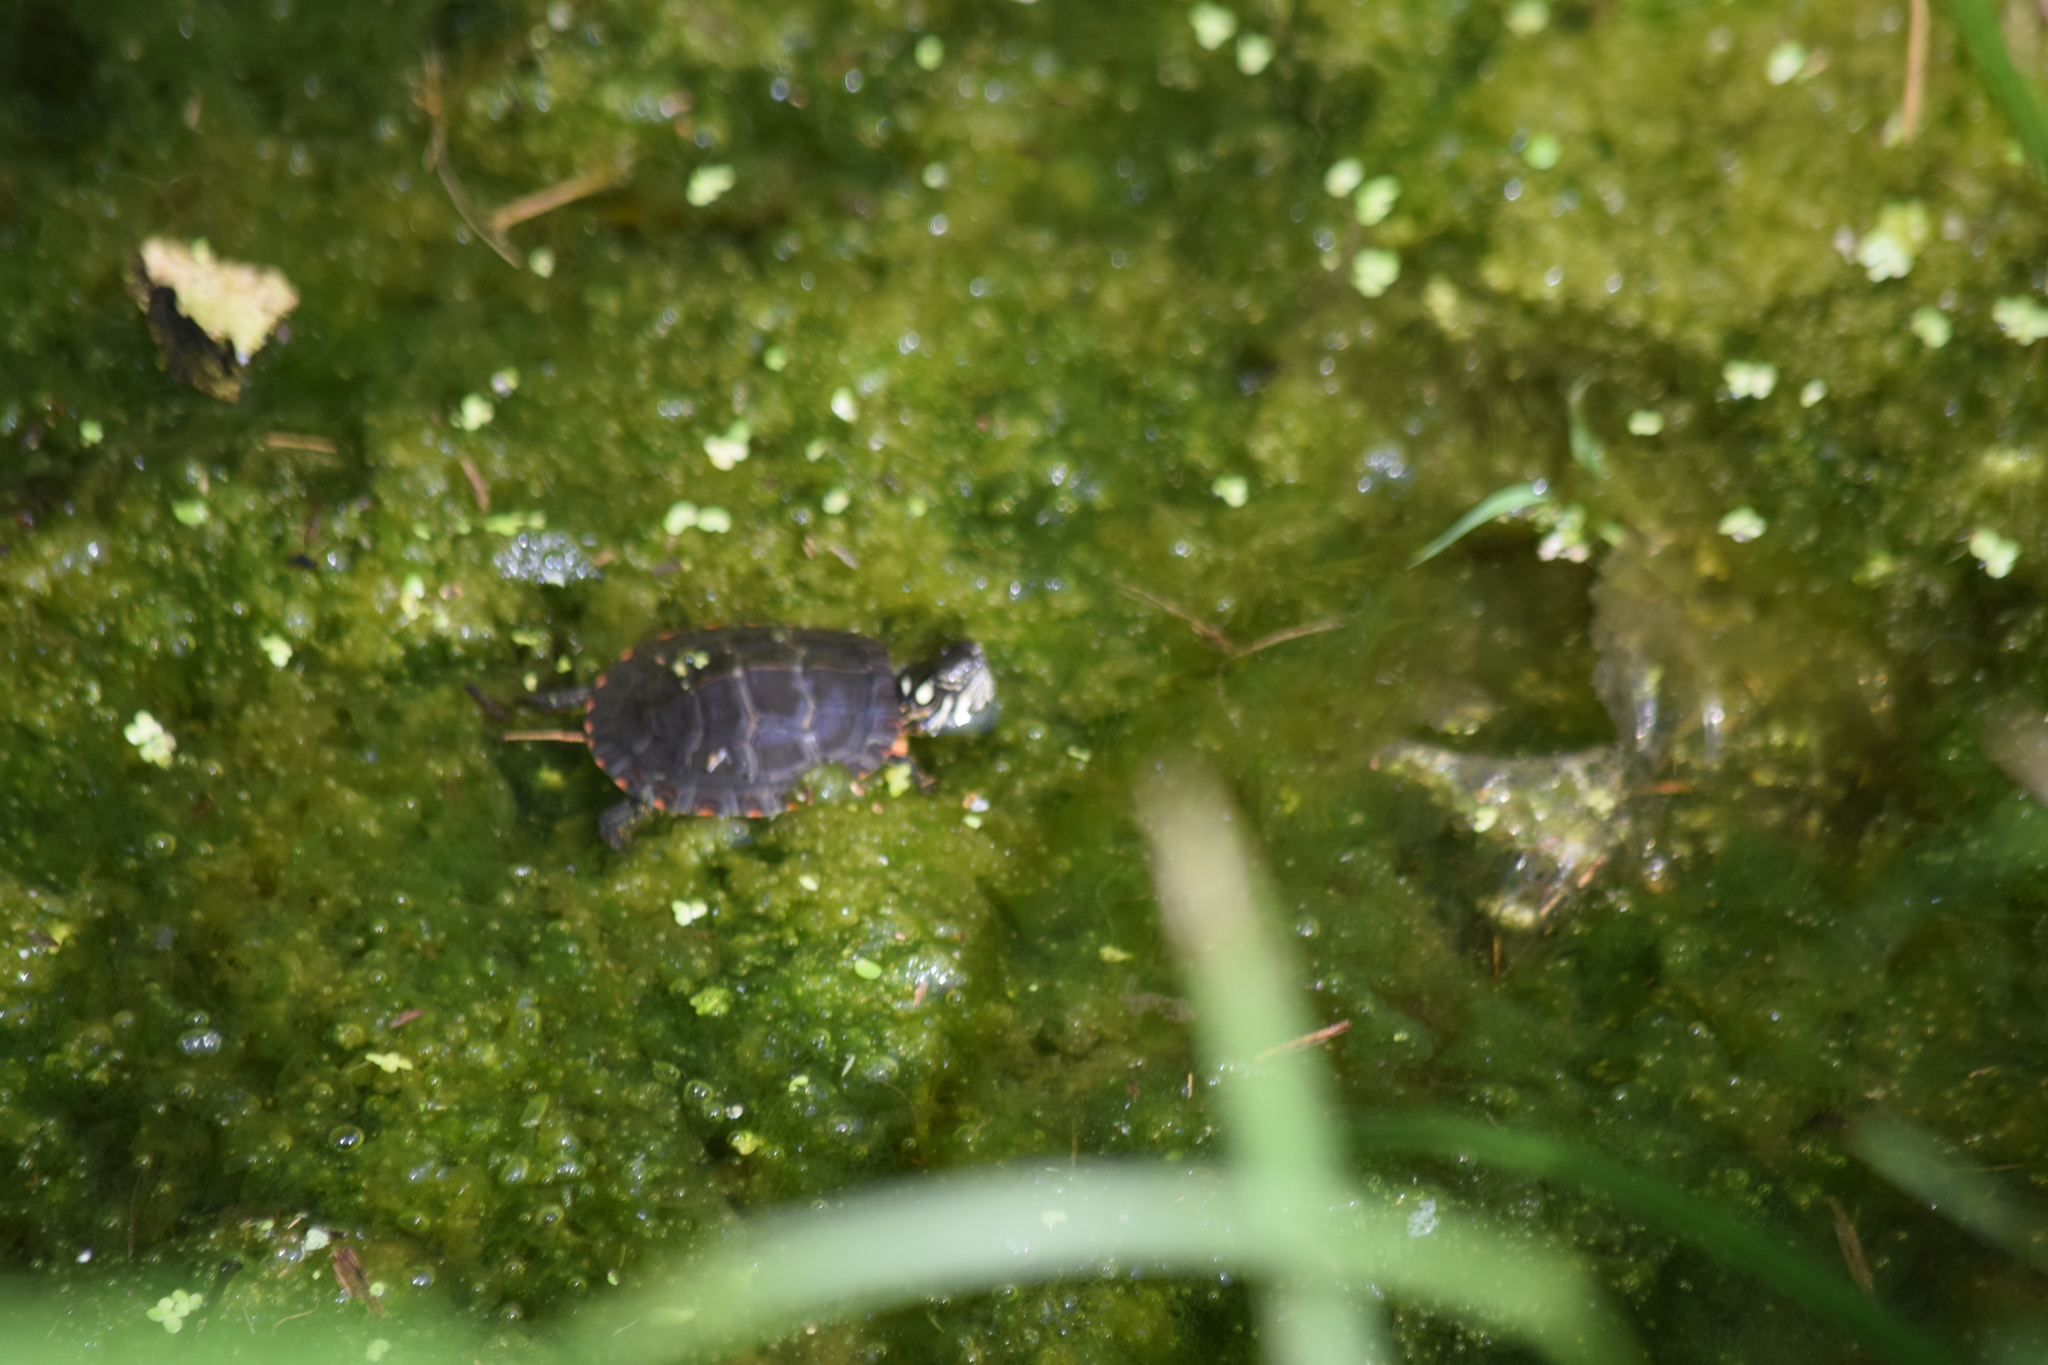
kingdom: Animalia
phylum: Chordata
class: Testudines
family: Emydidae
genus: Chrysemys
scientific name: Chrysemys picta
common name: Painted turtle
